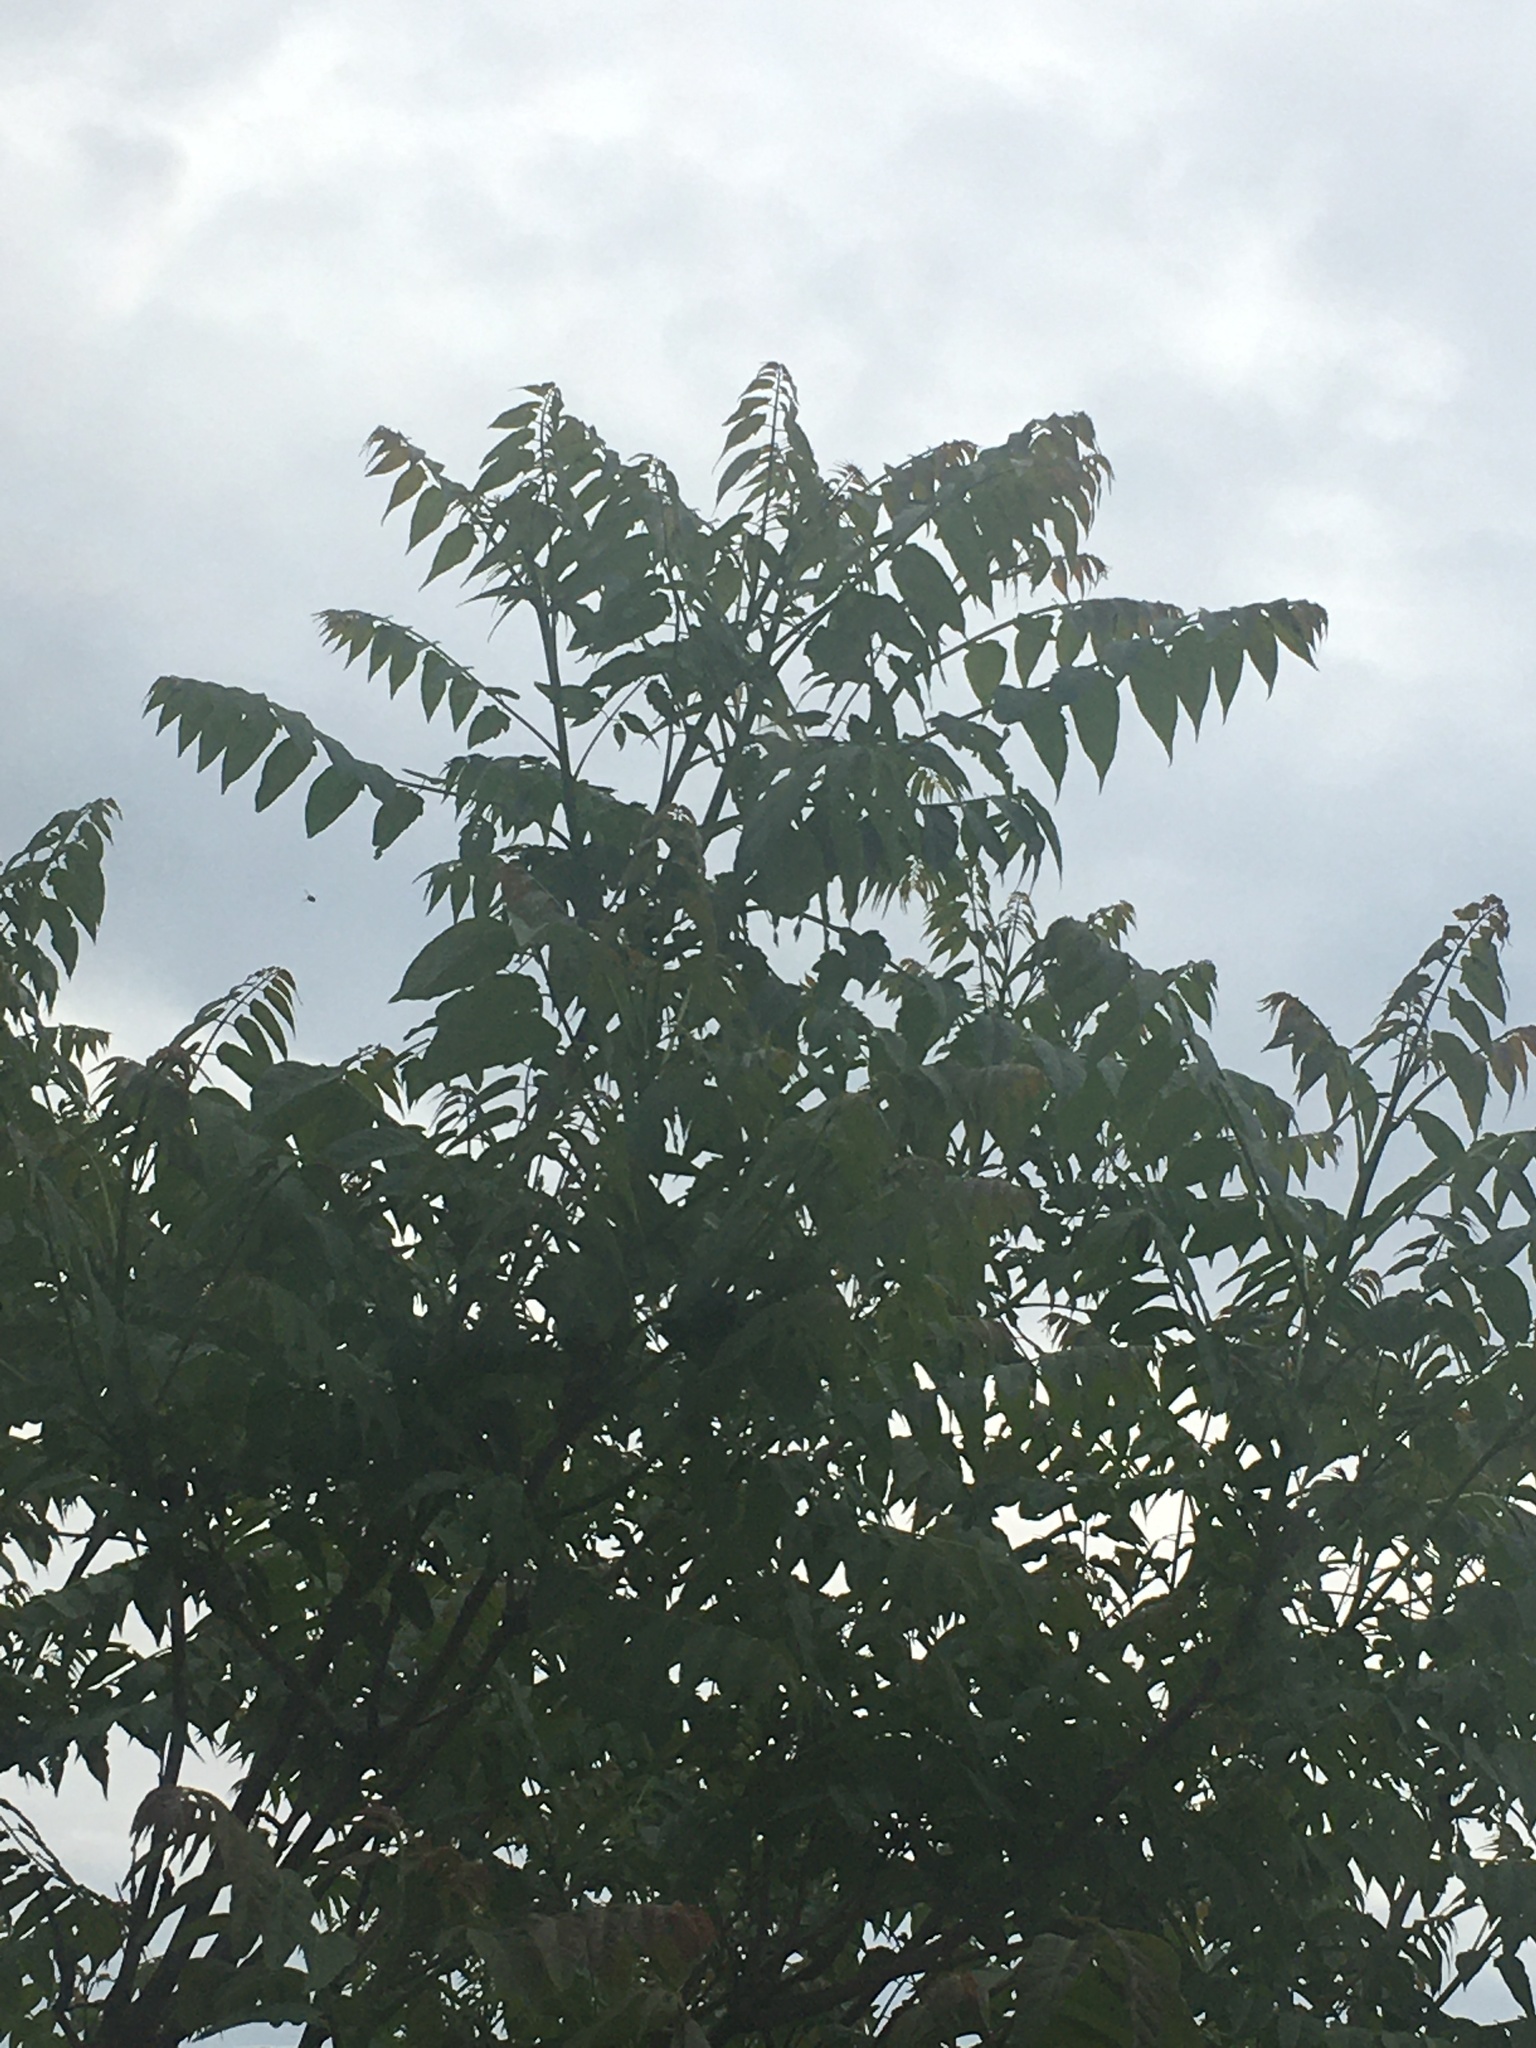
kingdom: Plantae
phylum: Tracheophyta
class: Magnoliopsida
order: Sapindales
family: Simaroubaceae
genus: Ailanthus
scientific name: Ailanthus altissima
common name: Tree-of-heaven
